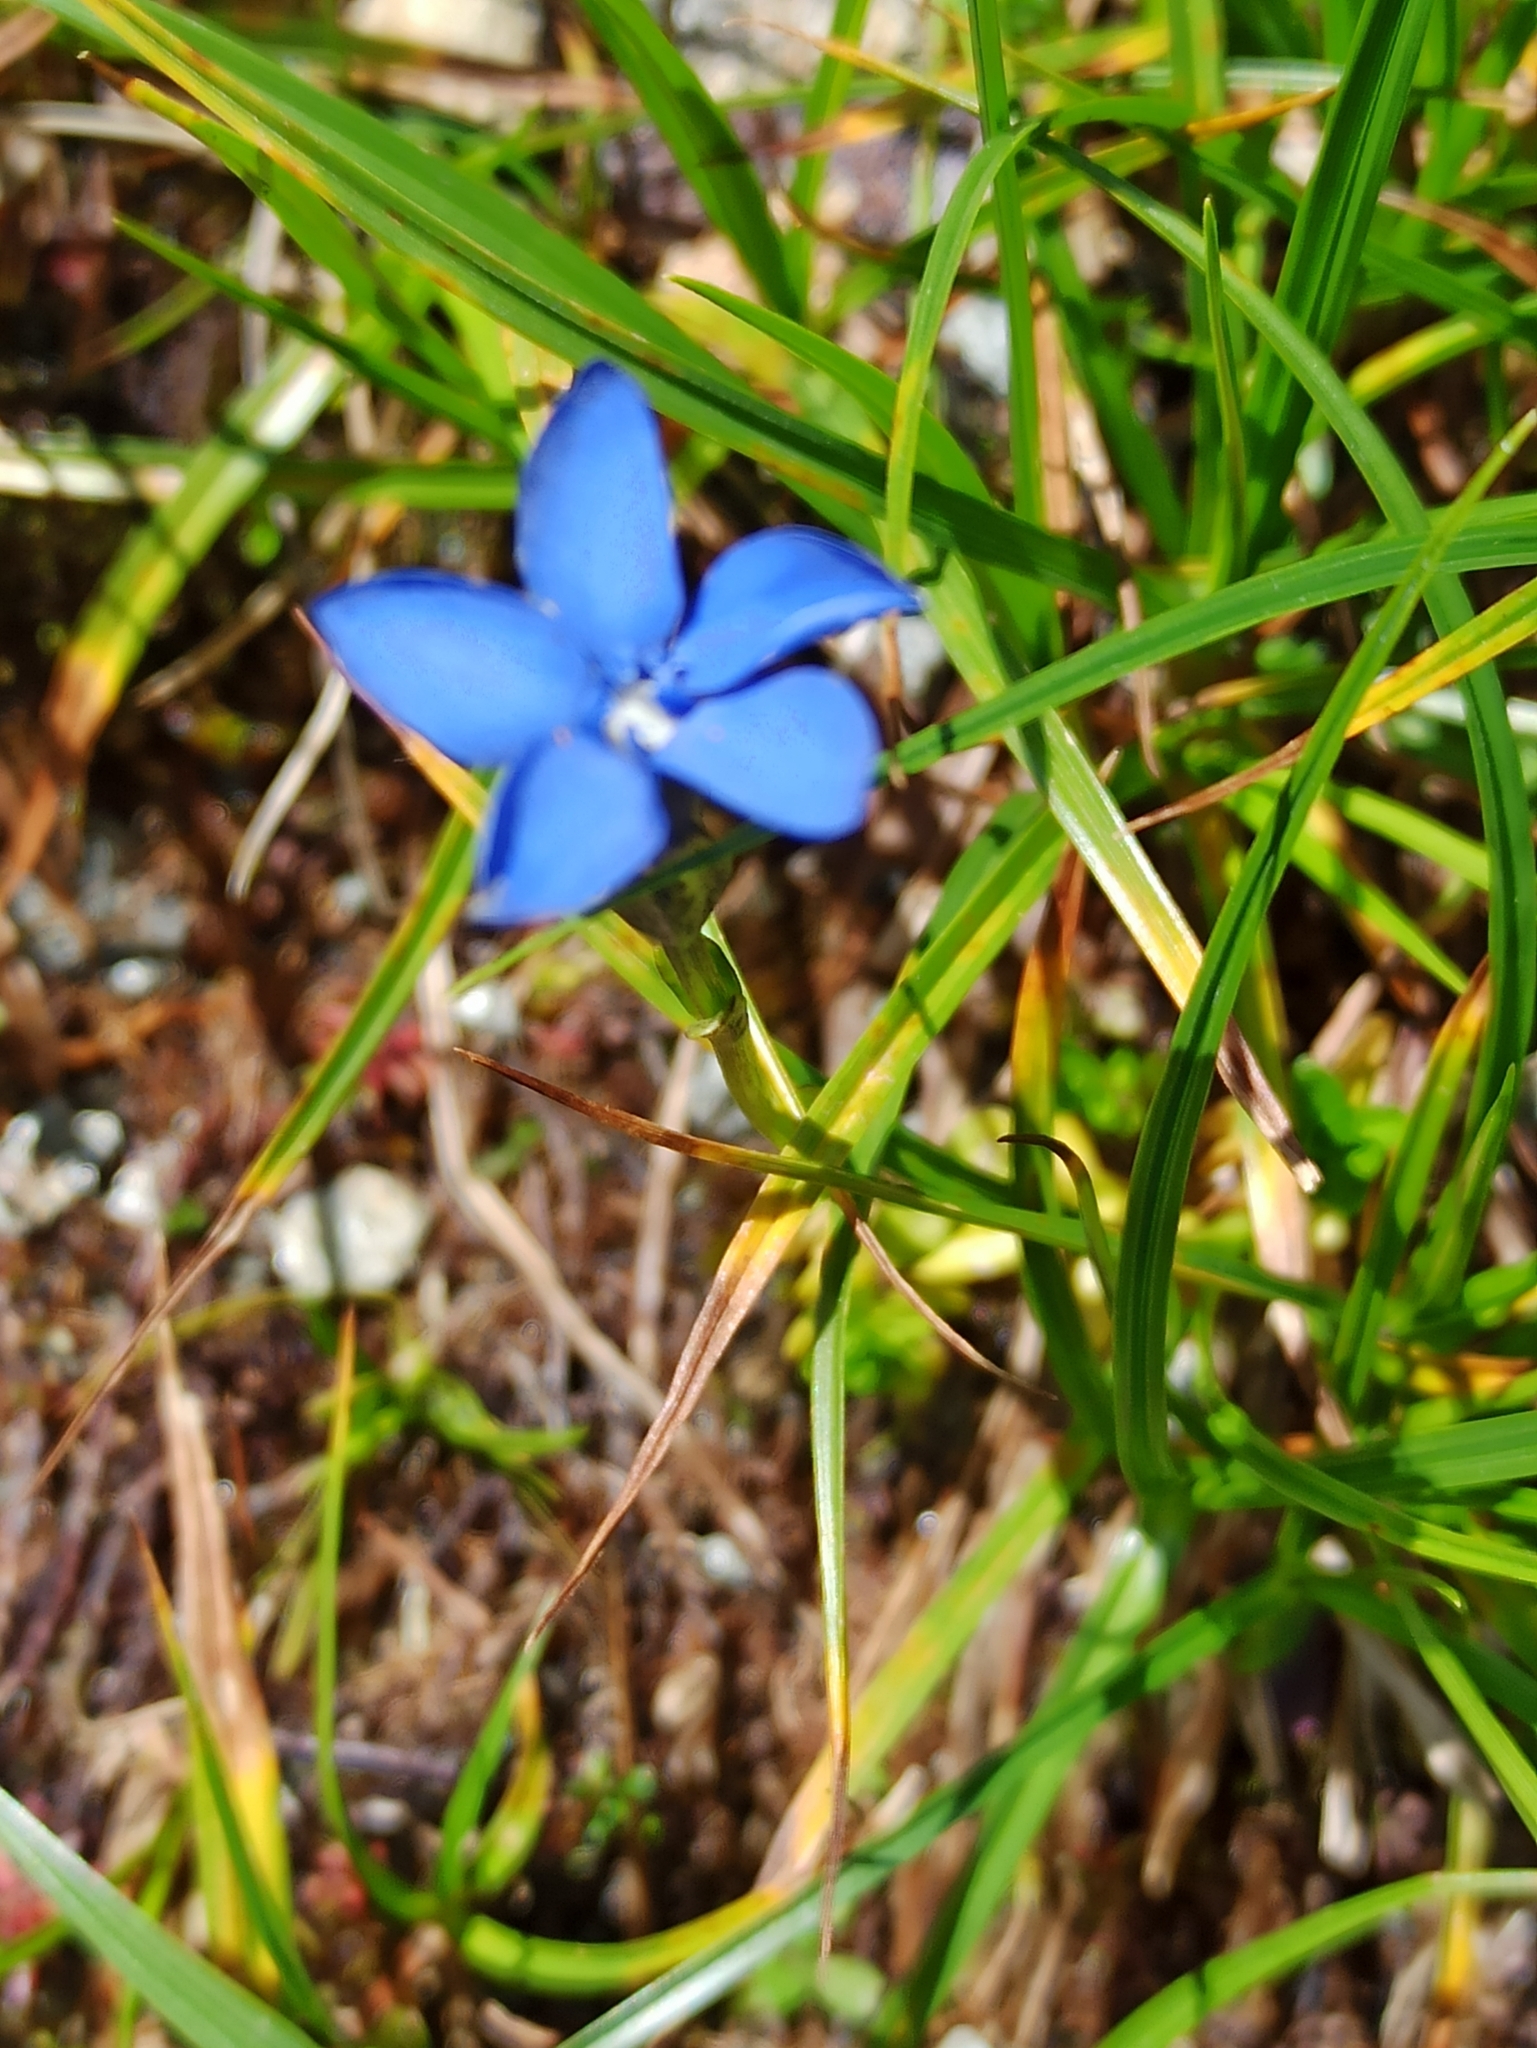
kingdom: Plantae
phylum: Tracheophyta
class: Magnoliopsida
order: Gentianales
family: Gentianaceae
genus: Gentiana
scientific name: Gentiana bavarica
